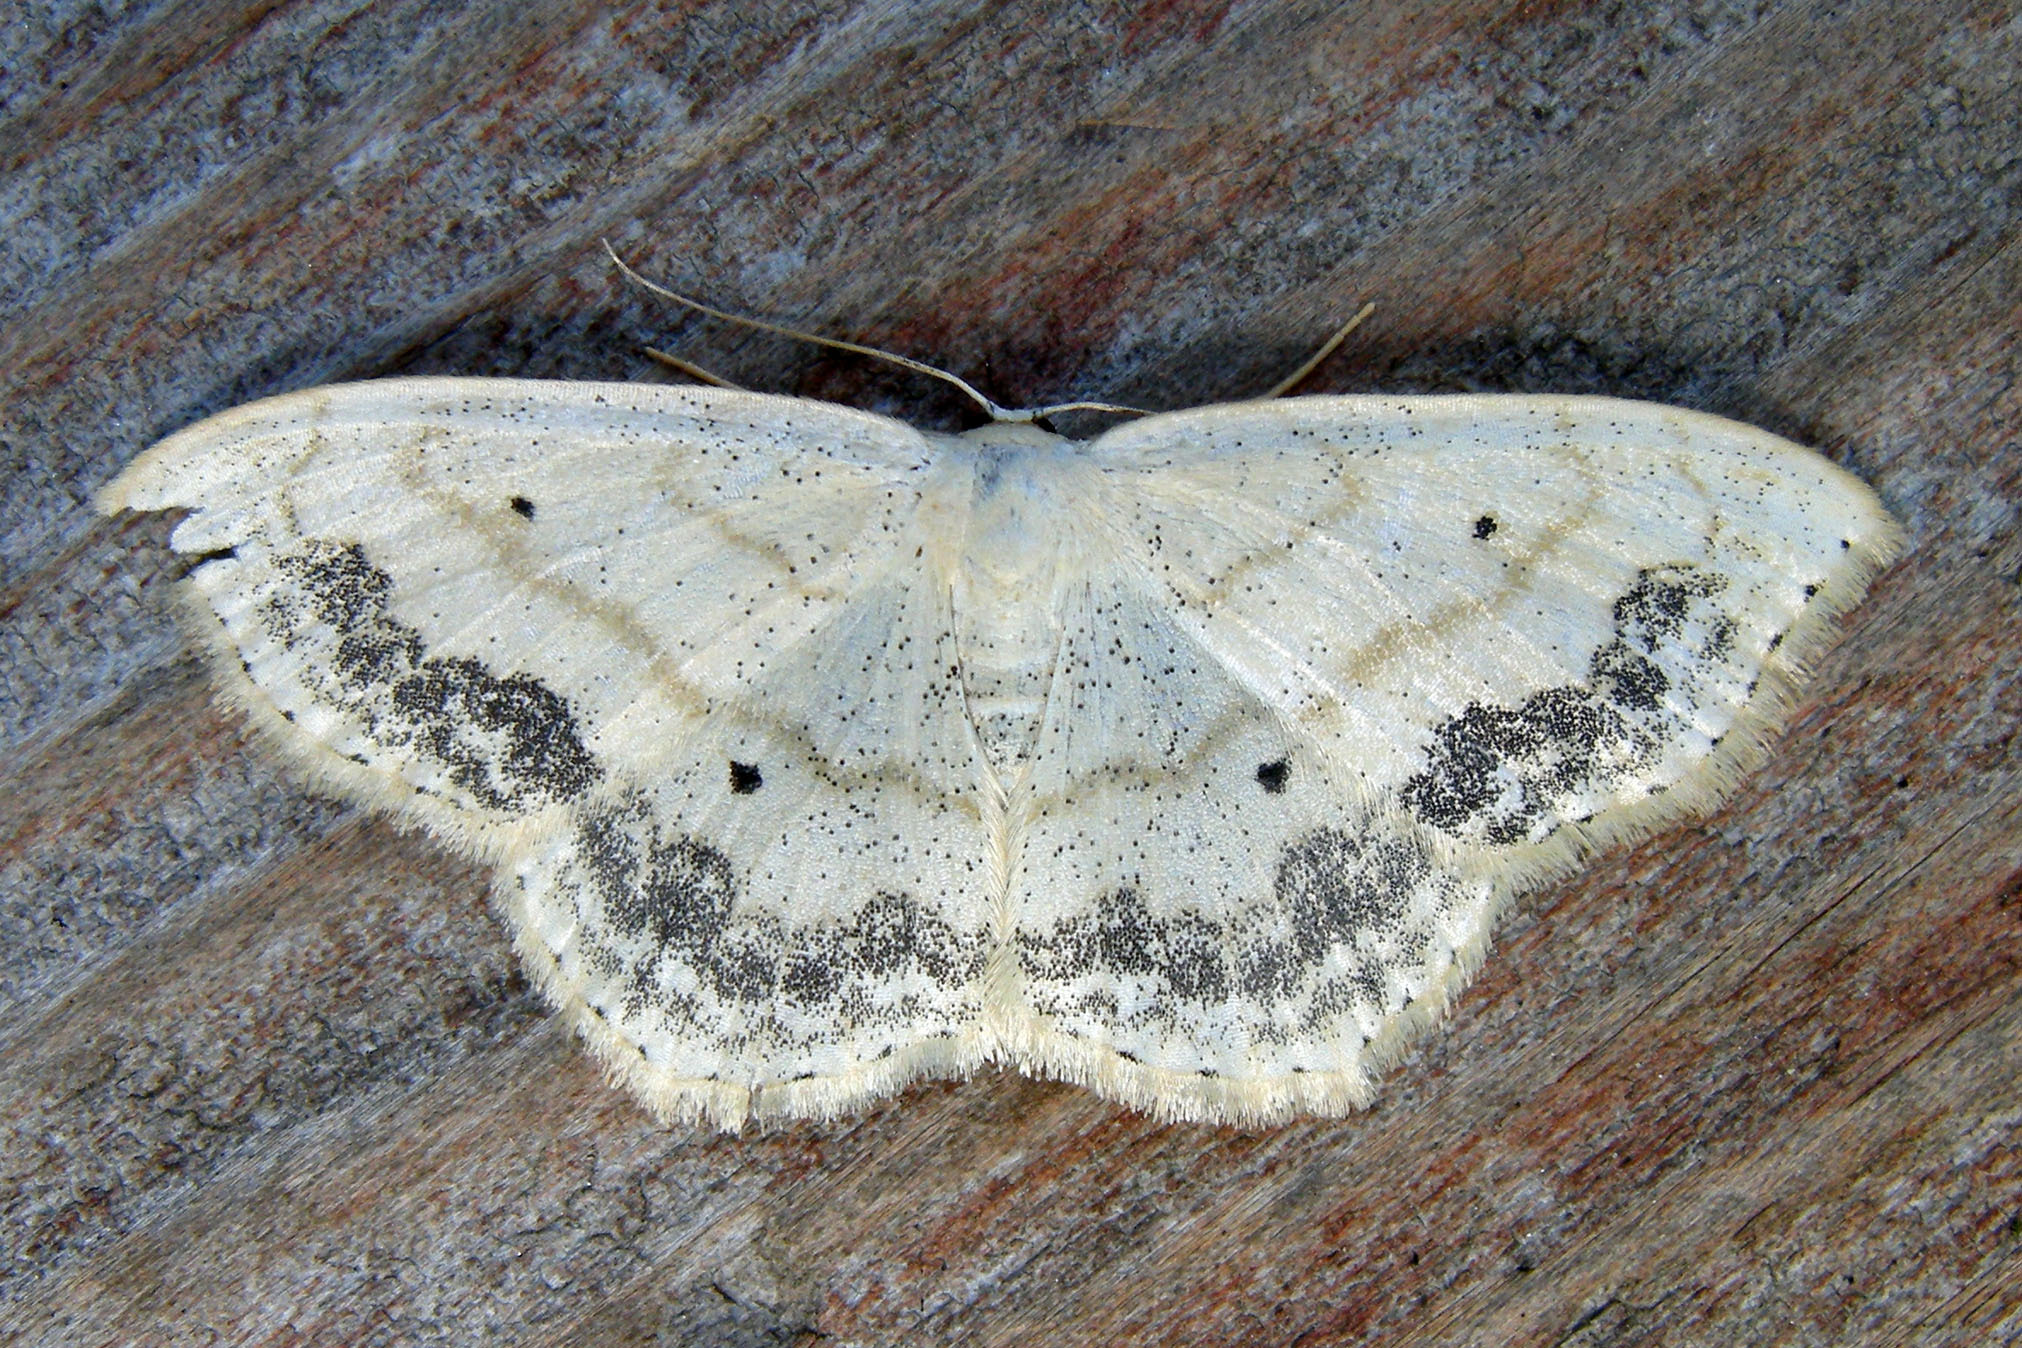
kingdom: Animalia
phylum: Arthropoda
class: Insecta
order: Lepidoptera
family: Geometridae
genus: Scopula
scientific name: Scopula limboundata
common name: Large lace border
